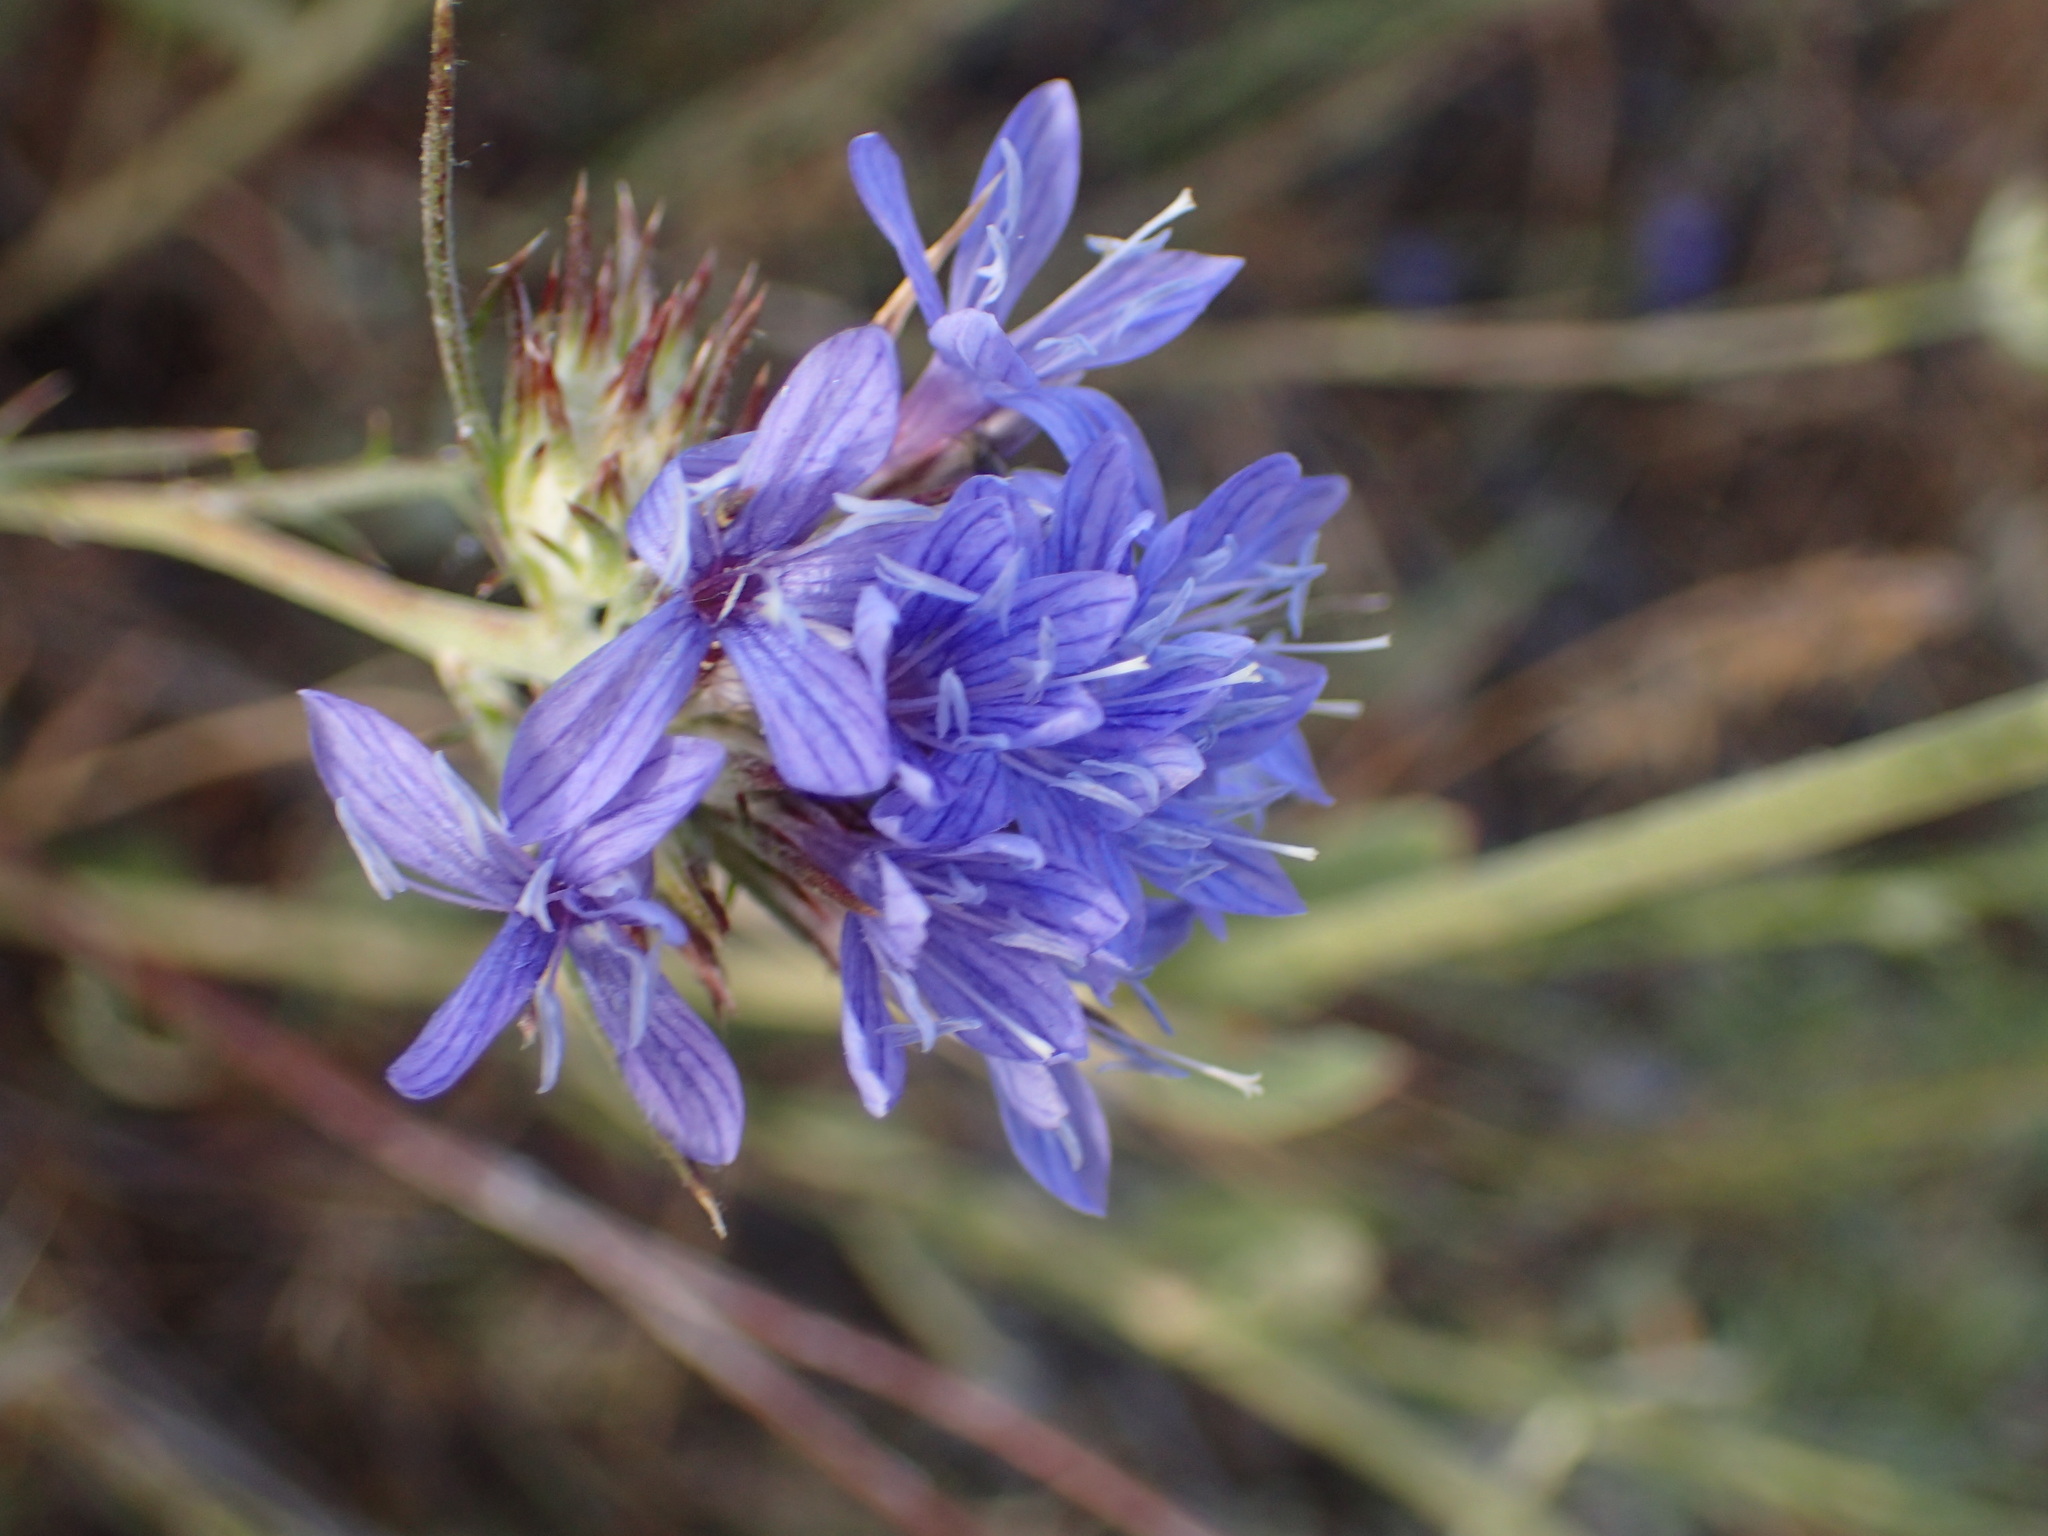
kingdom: Plantae
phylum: Tracheophyta
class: Magnoliopsida
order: Ericales
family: Polemoniaceae
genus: Eriastrum
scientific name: Eriastrum densifolium
